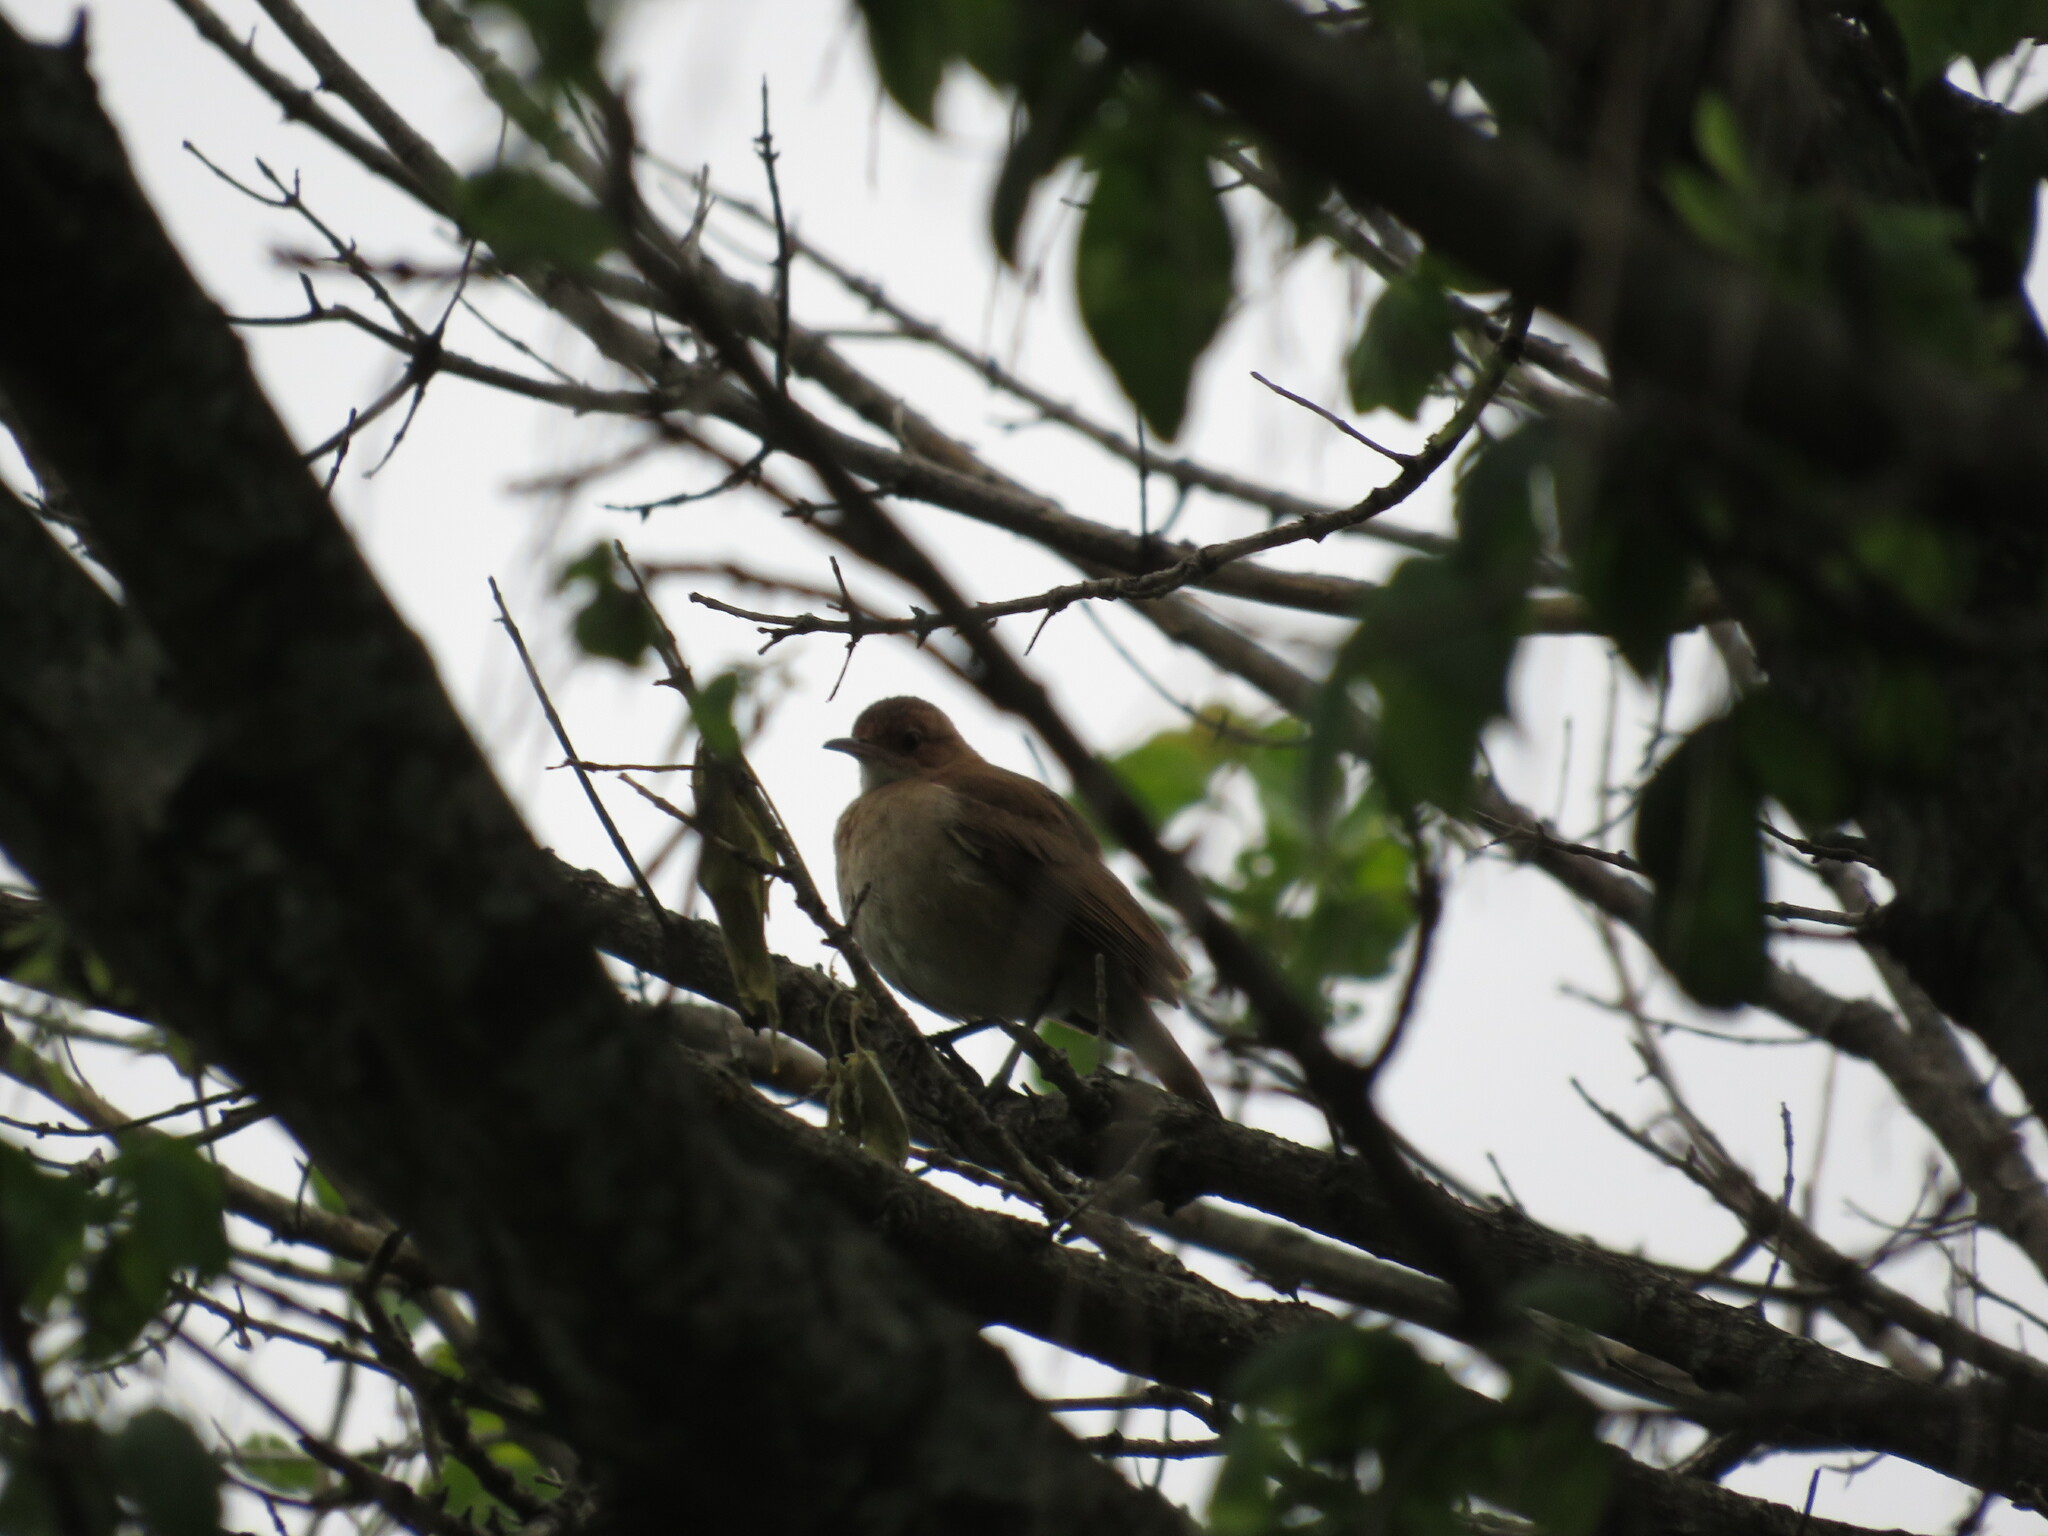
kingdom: Animalia
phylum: Chordata
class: Aves
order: Passeriformes
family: Furnariidae
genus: Furnarius
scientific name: Furnarius rufus
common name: Rufous hornero
